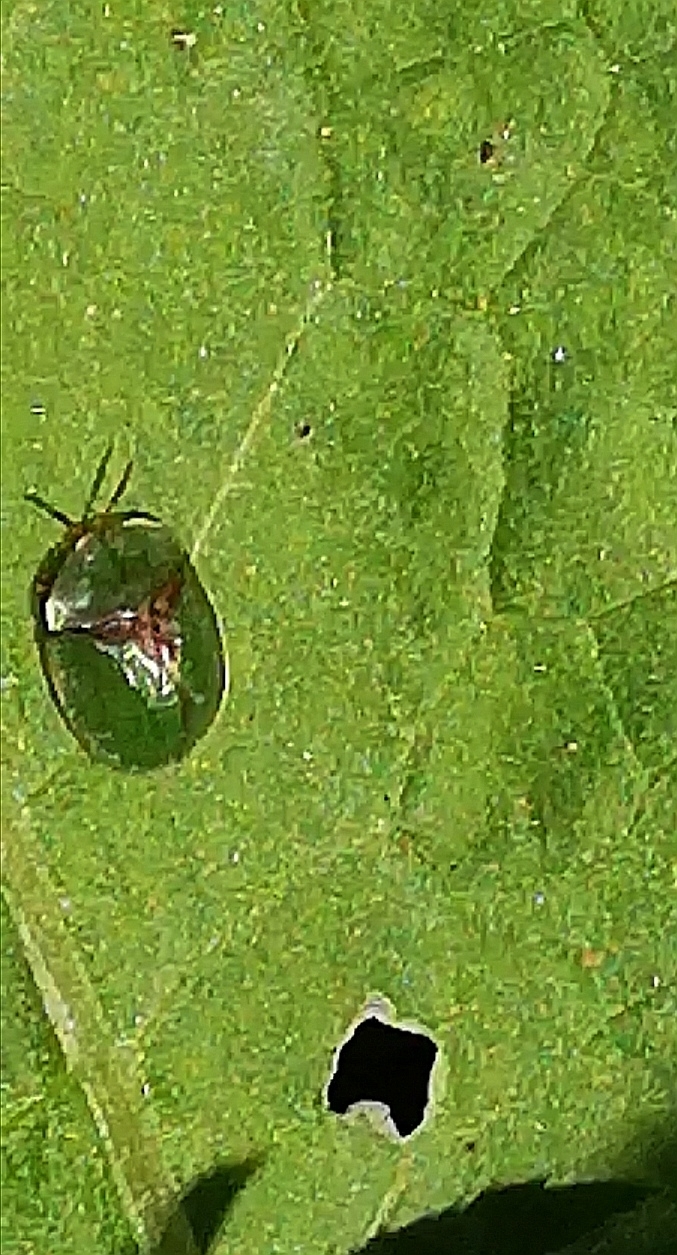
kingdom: Animalia
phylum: Arthropoda
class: Insecta
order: Coleoptera
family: Chrysomelidae
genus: Cassida
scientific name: Cassida rubiginosa
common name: Thistle tortoise beetle
